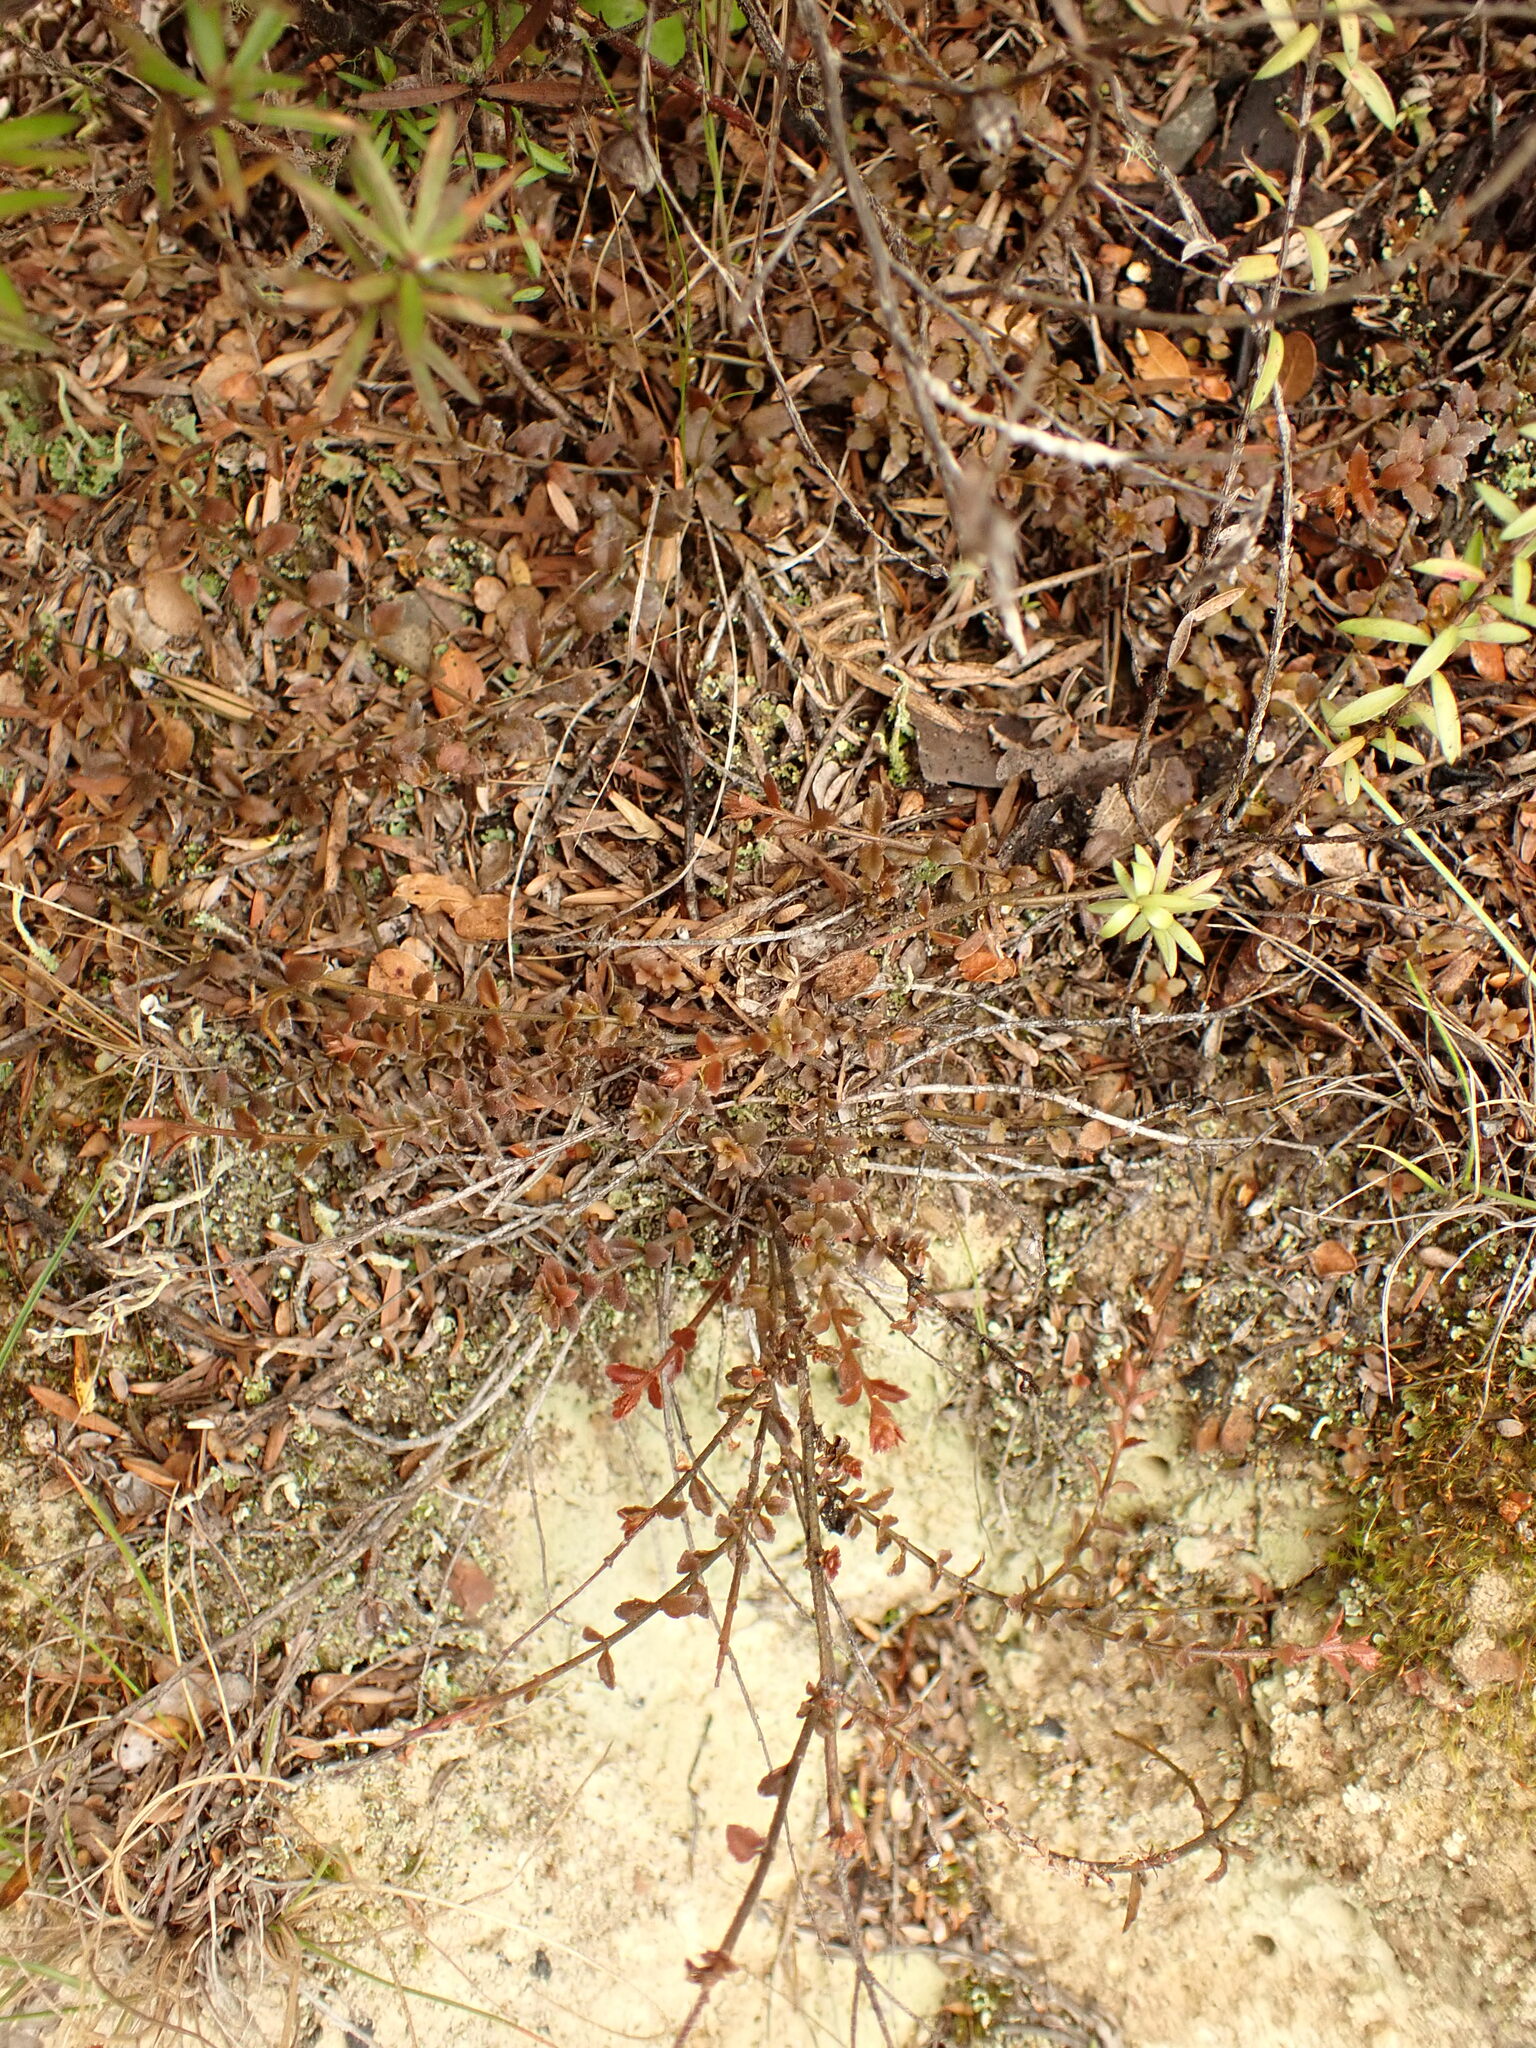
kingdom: Plantae
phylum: Tracheophyta
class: Magnoliopsida
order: Saxifragales
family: Haloragaceae
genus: Gonocarpus
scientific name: Gonocarpus incanus
